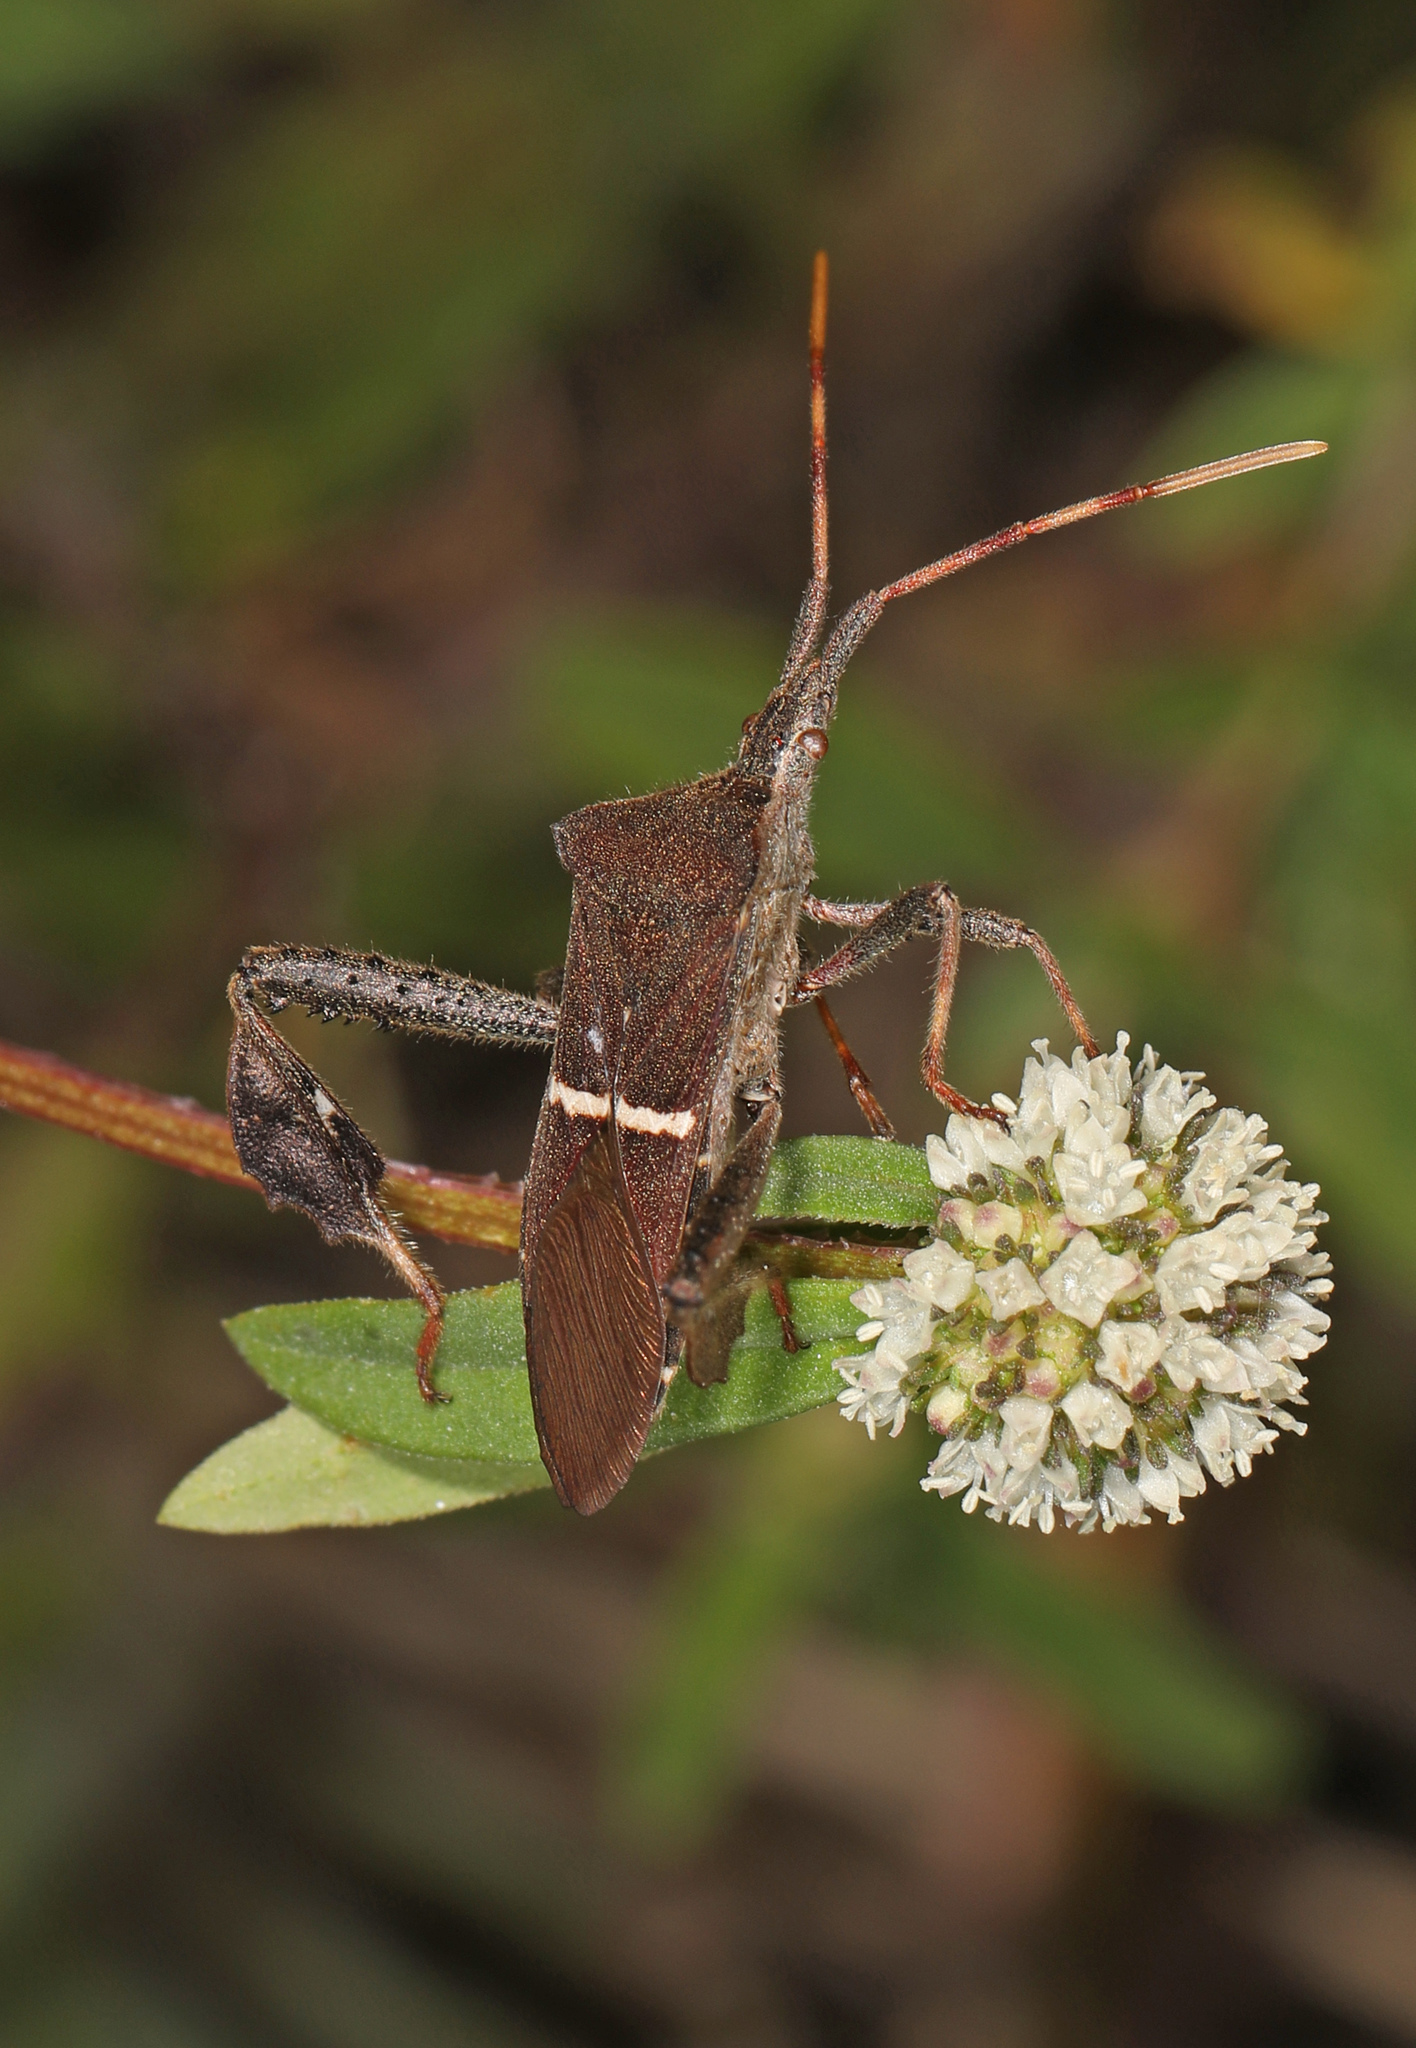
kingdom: Animalia
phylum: Arthropoda
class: Insecta
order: Hemiptera
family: Coreidae
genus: Leptoglossus
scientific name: Leptoglossus phyllopus
